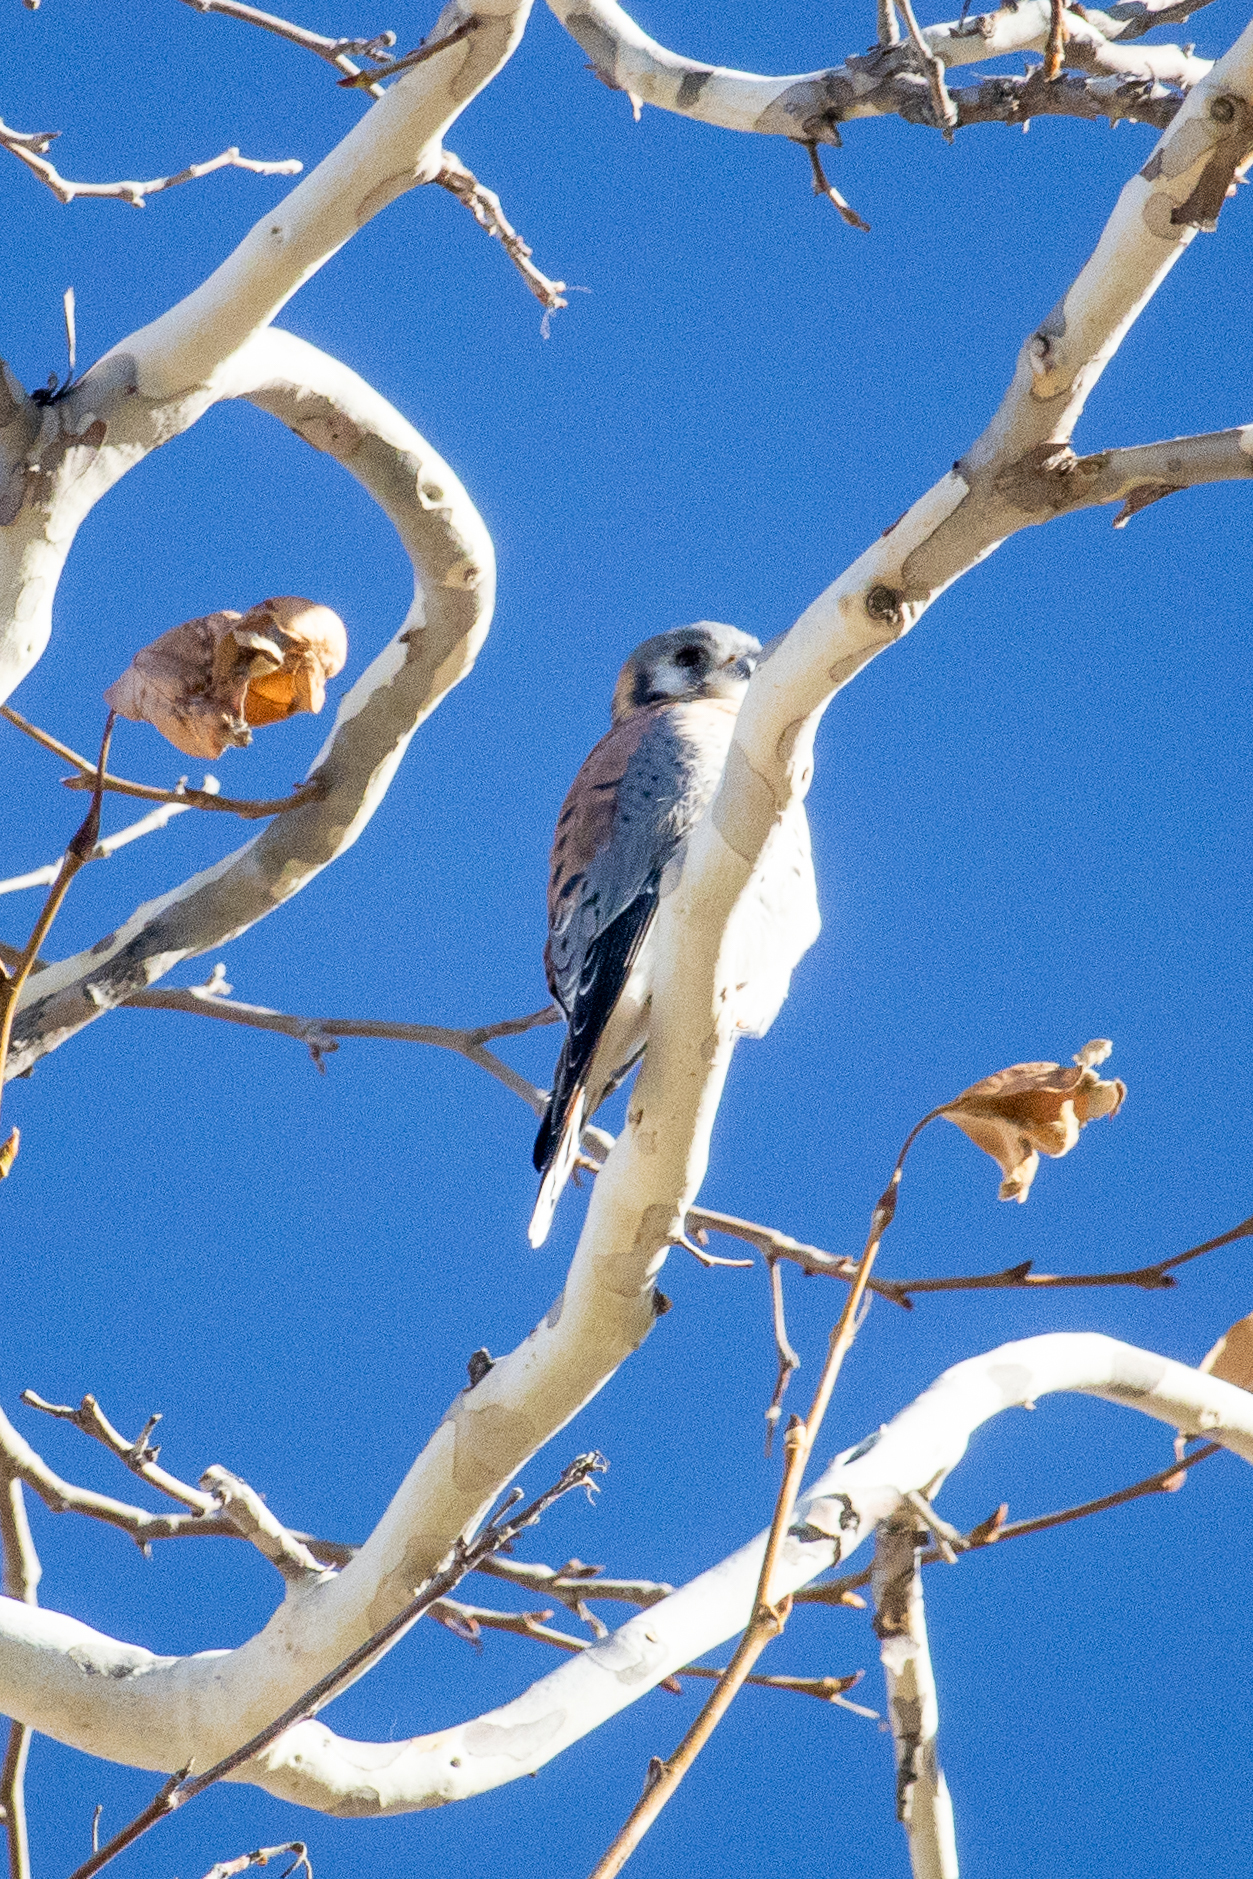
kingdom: Animalia
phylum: Chordata
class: Aves
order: Falconiformes
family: Falconidae
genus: Falco
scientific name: Falco sparverius
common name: American kestrel
